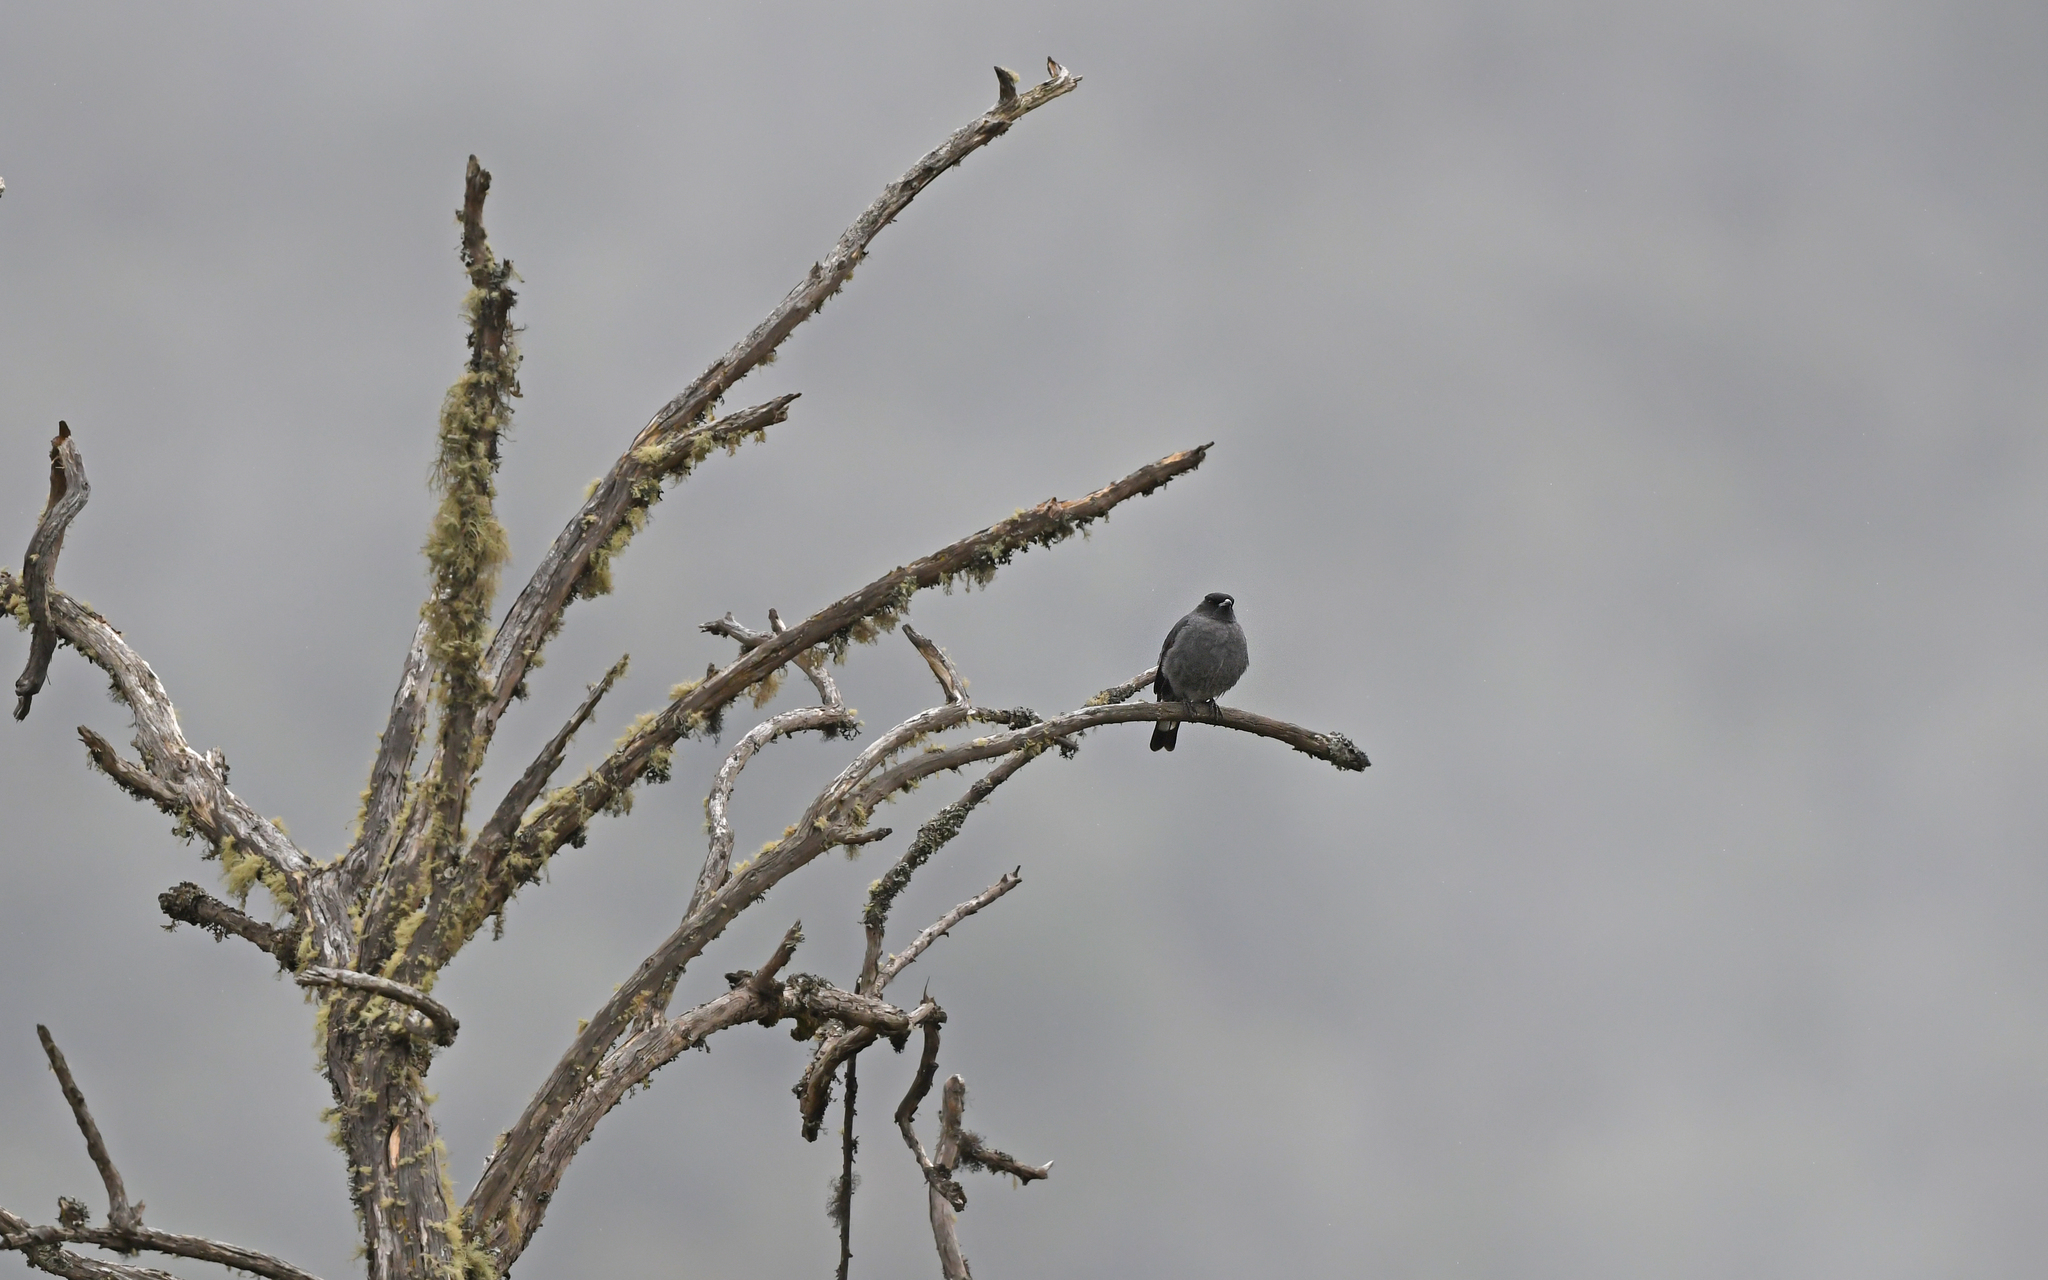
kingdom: Animalia
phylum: Chordata
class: Aves
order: Passeriformes
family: Cotingidae
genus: Ampelion
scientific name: Ampelion rubrocristatus
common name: Red-crested cotinga
